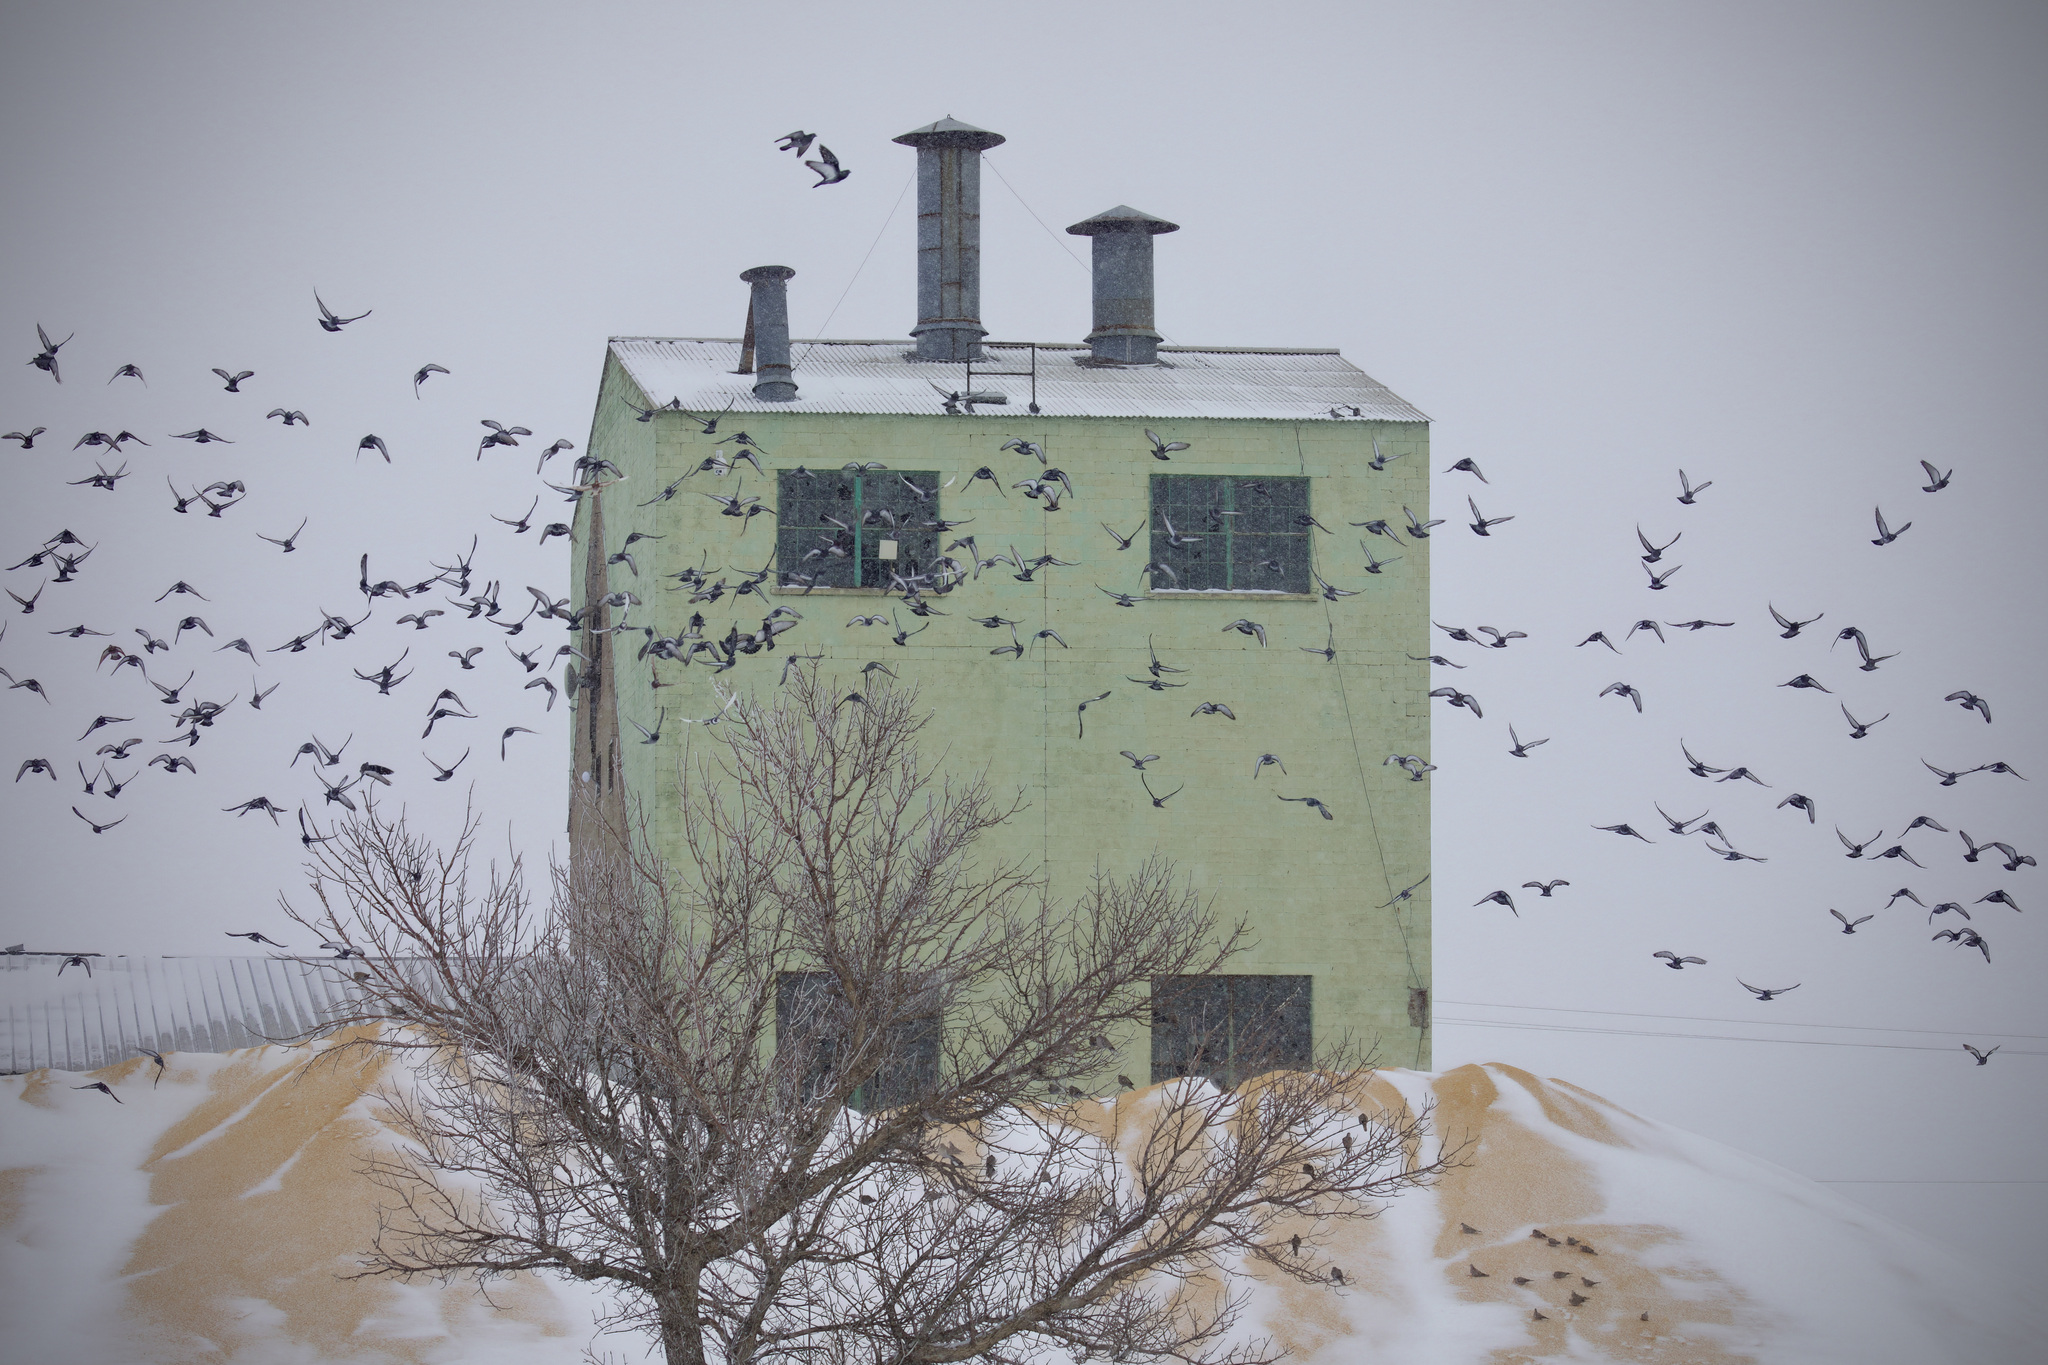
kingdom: Animalia
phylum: Chordata
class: Aves
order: Columbiformes
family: Columbidae
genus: Columba
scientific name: Columba livia
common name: Rock pigeon
